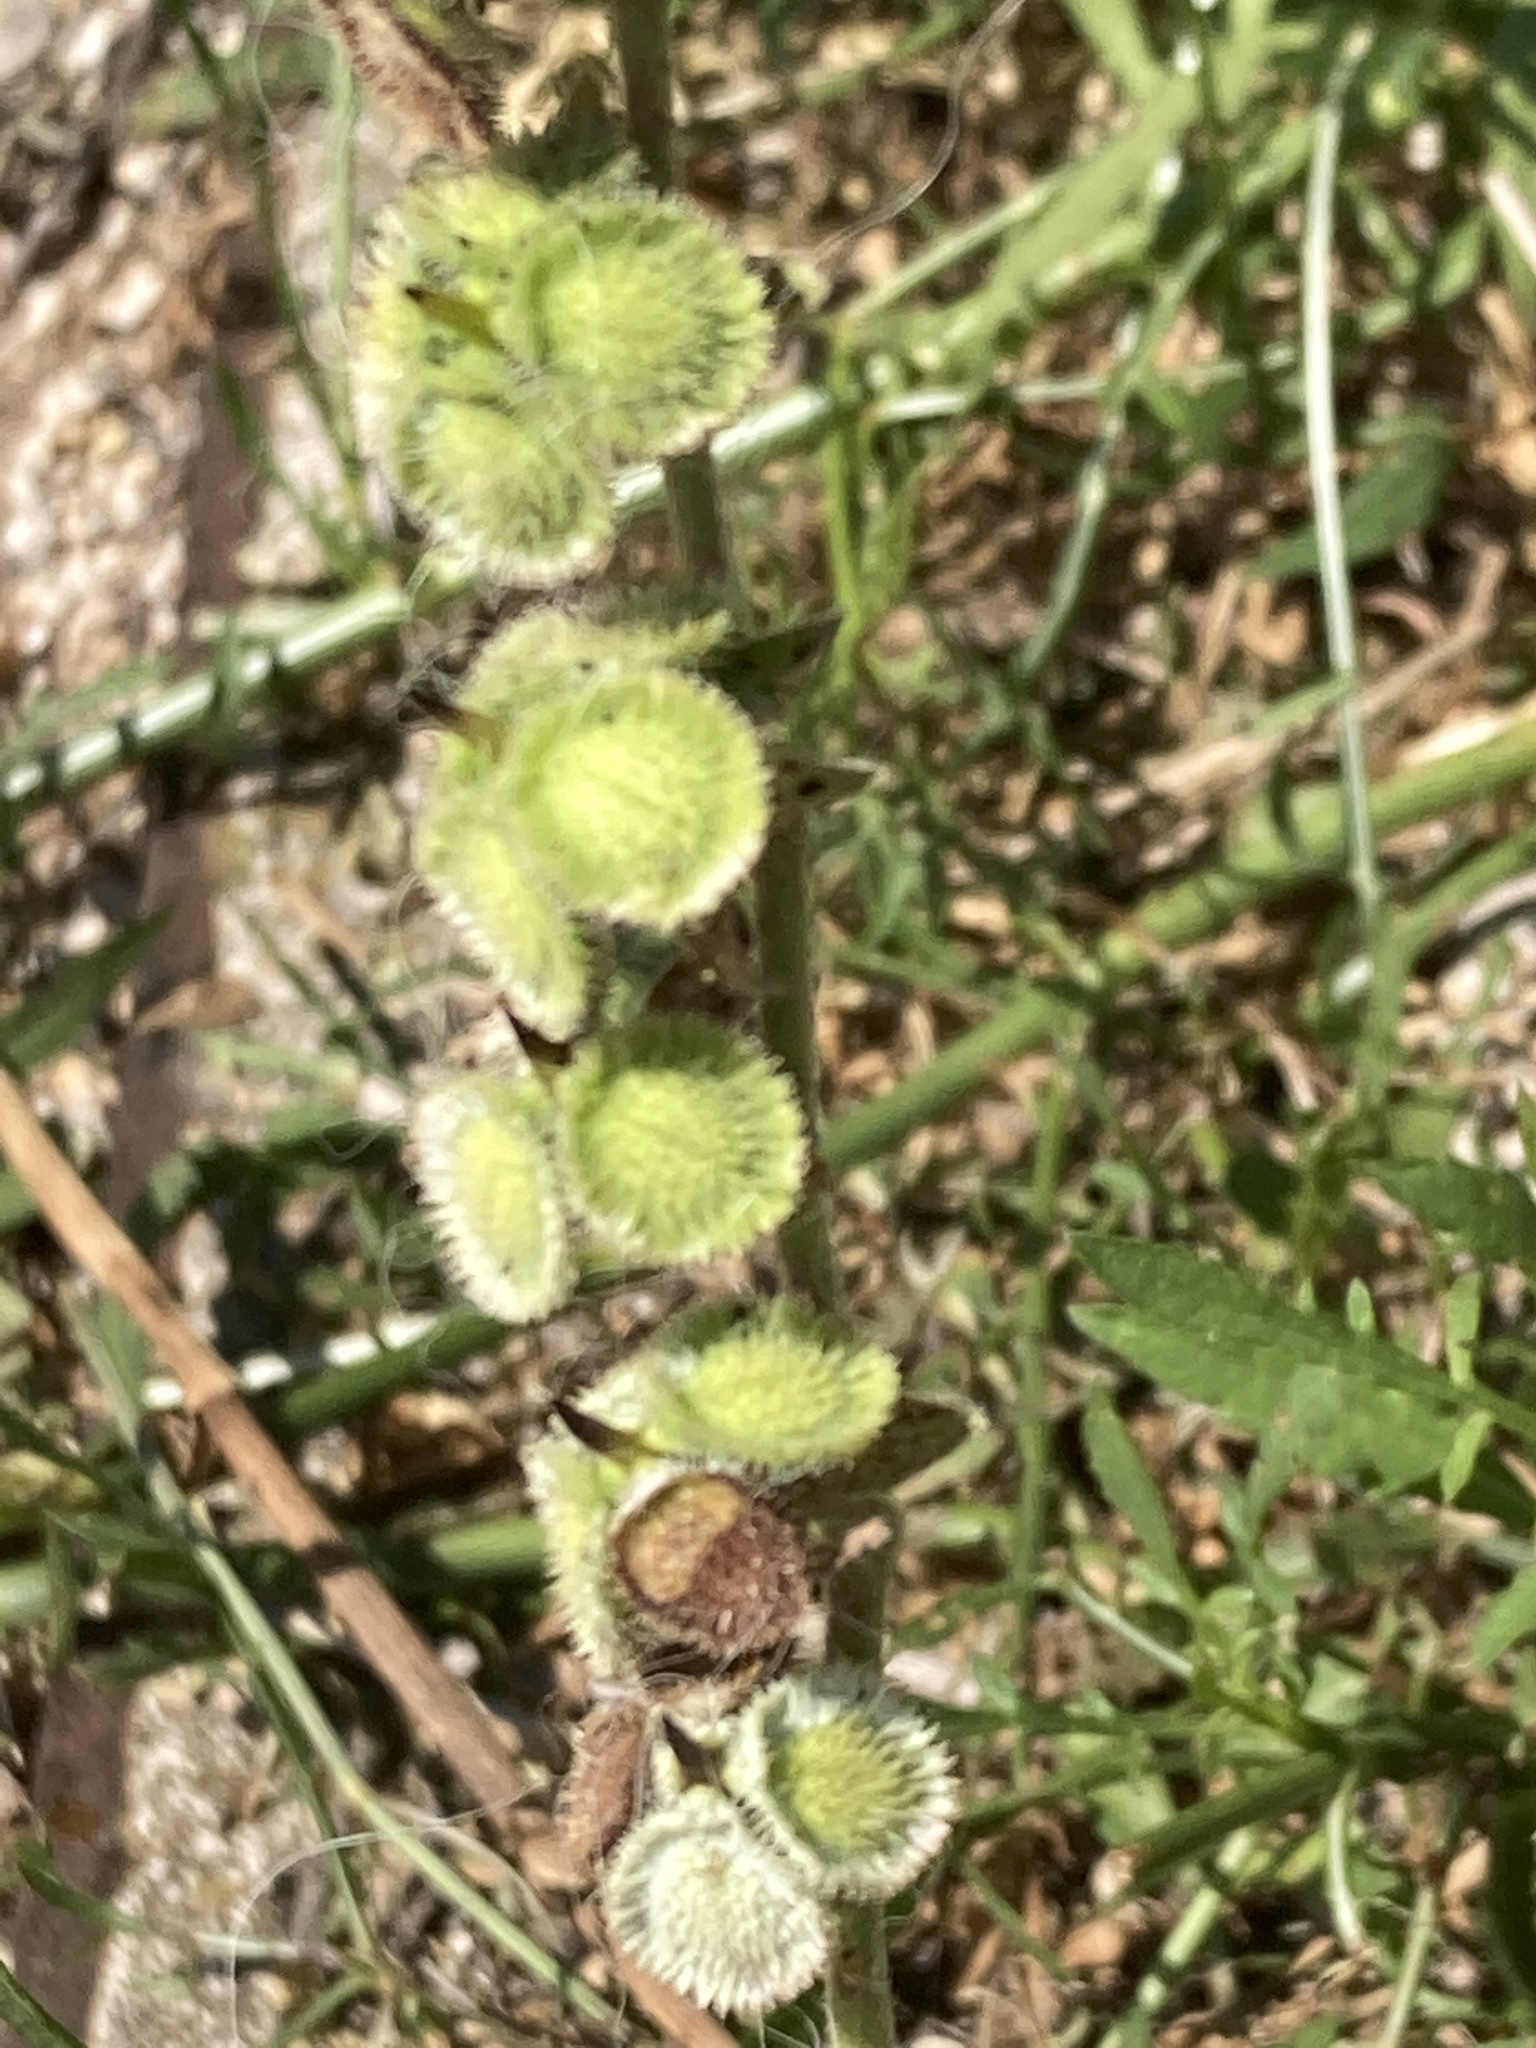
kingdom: Plantae
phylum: Tracheophyta
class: Magnoliopsida
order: Boraginales
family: Boraginaceae
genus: Cynoglossum
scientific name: Cynoglossum columnae
